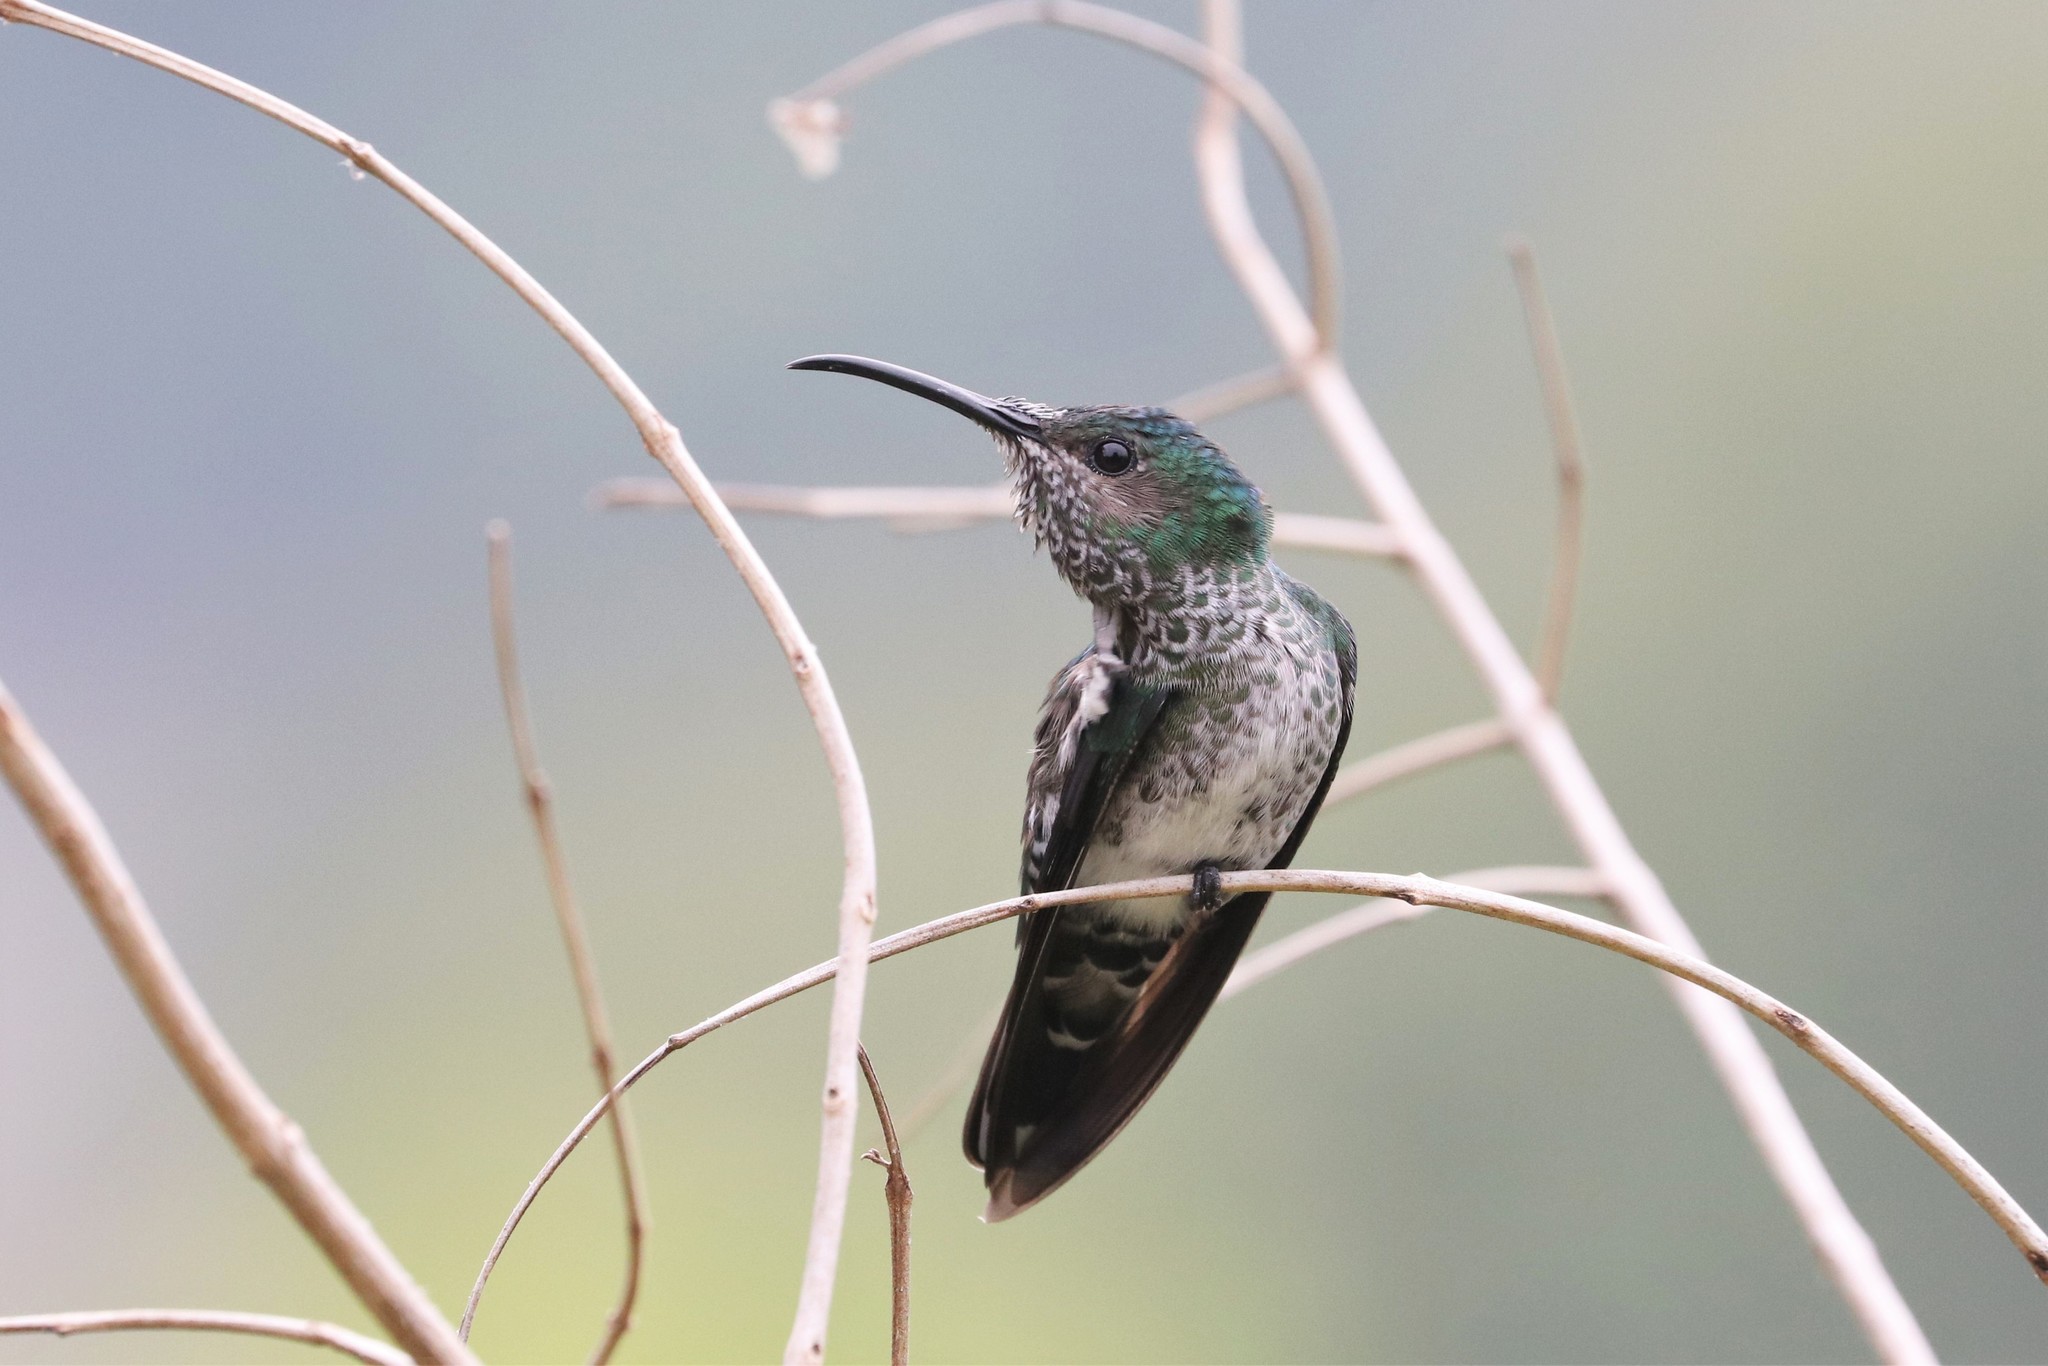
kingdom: Animalia
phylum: Chordata
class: Aves
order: Apodiformes
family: Trochilidae
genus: Florisuga
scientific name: Florisuga mellivora
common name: White-necked jacobin
